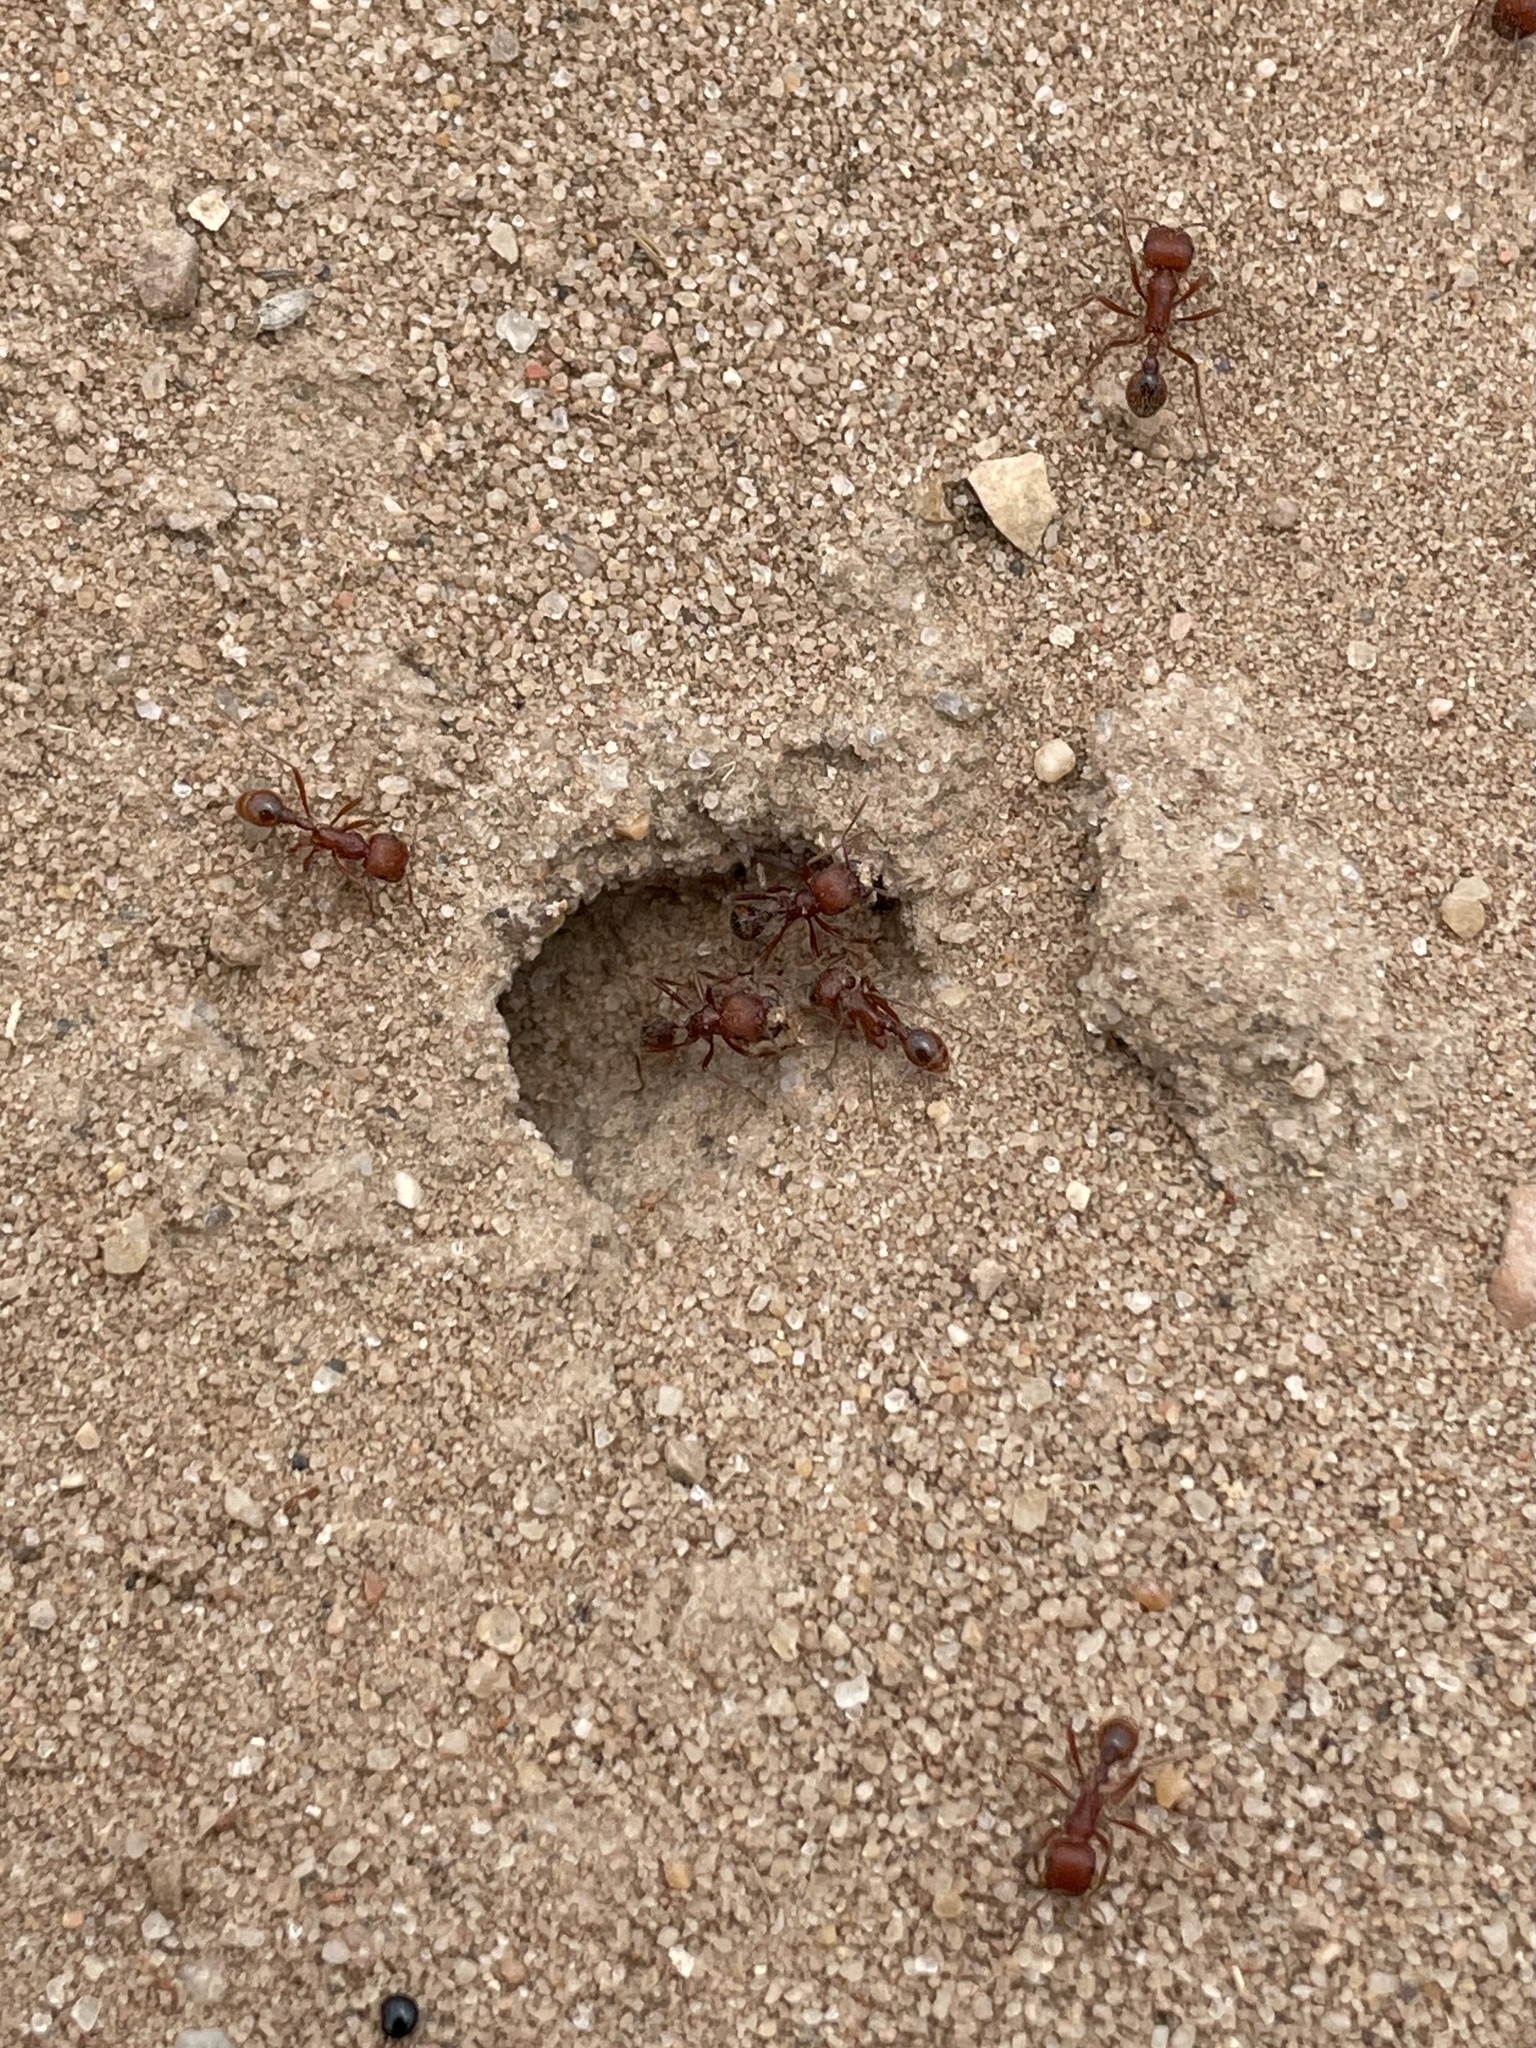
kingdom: Animalia
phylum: Arthropoda
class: Insecta
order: Hymenoptera
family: Formicidae
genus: Pogonomyrmex
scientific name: Pogonomyrmex comanche
